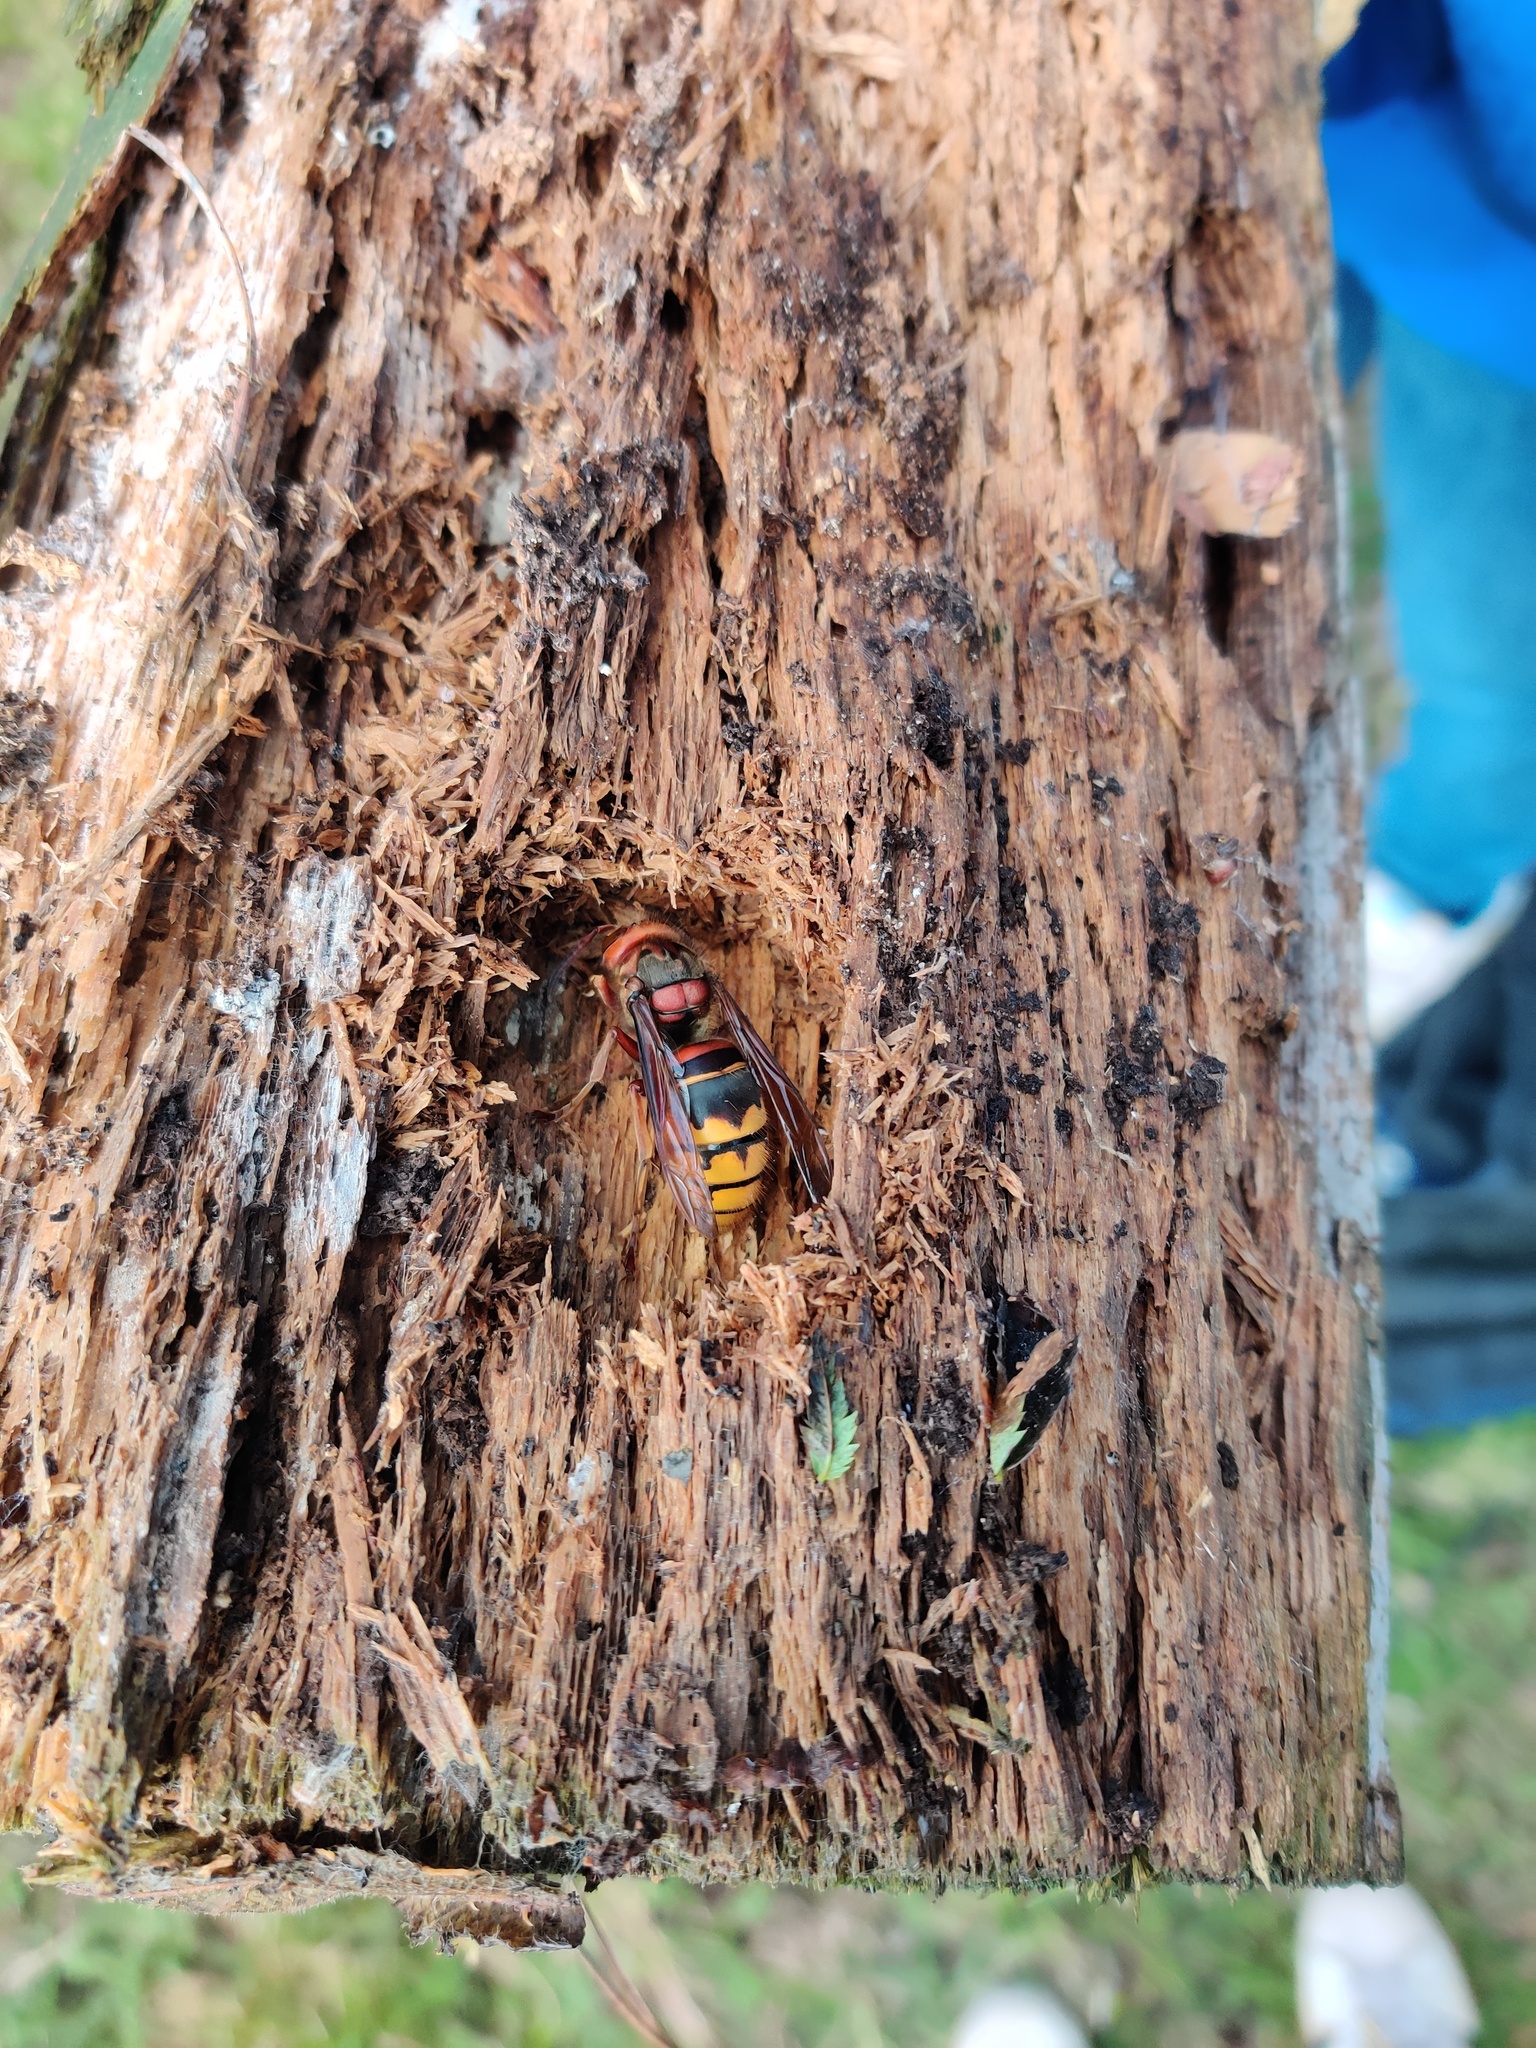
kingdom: Animalia
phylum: Arthropoda
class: Insecta
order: Hymenoptera
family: Vespidae
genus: Vespa
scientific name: Vespa crabro
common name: Hornet
